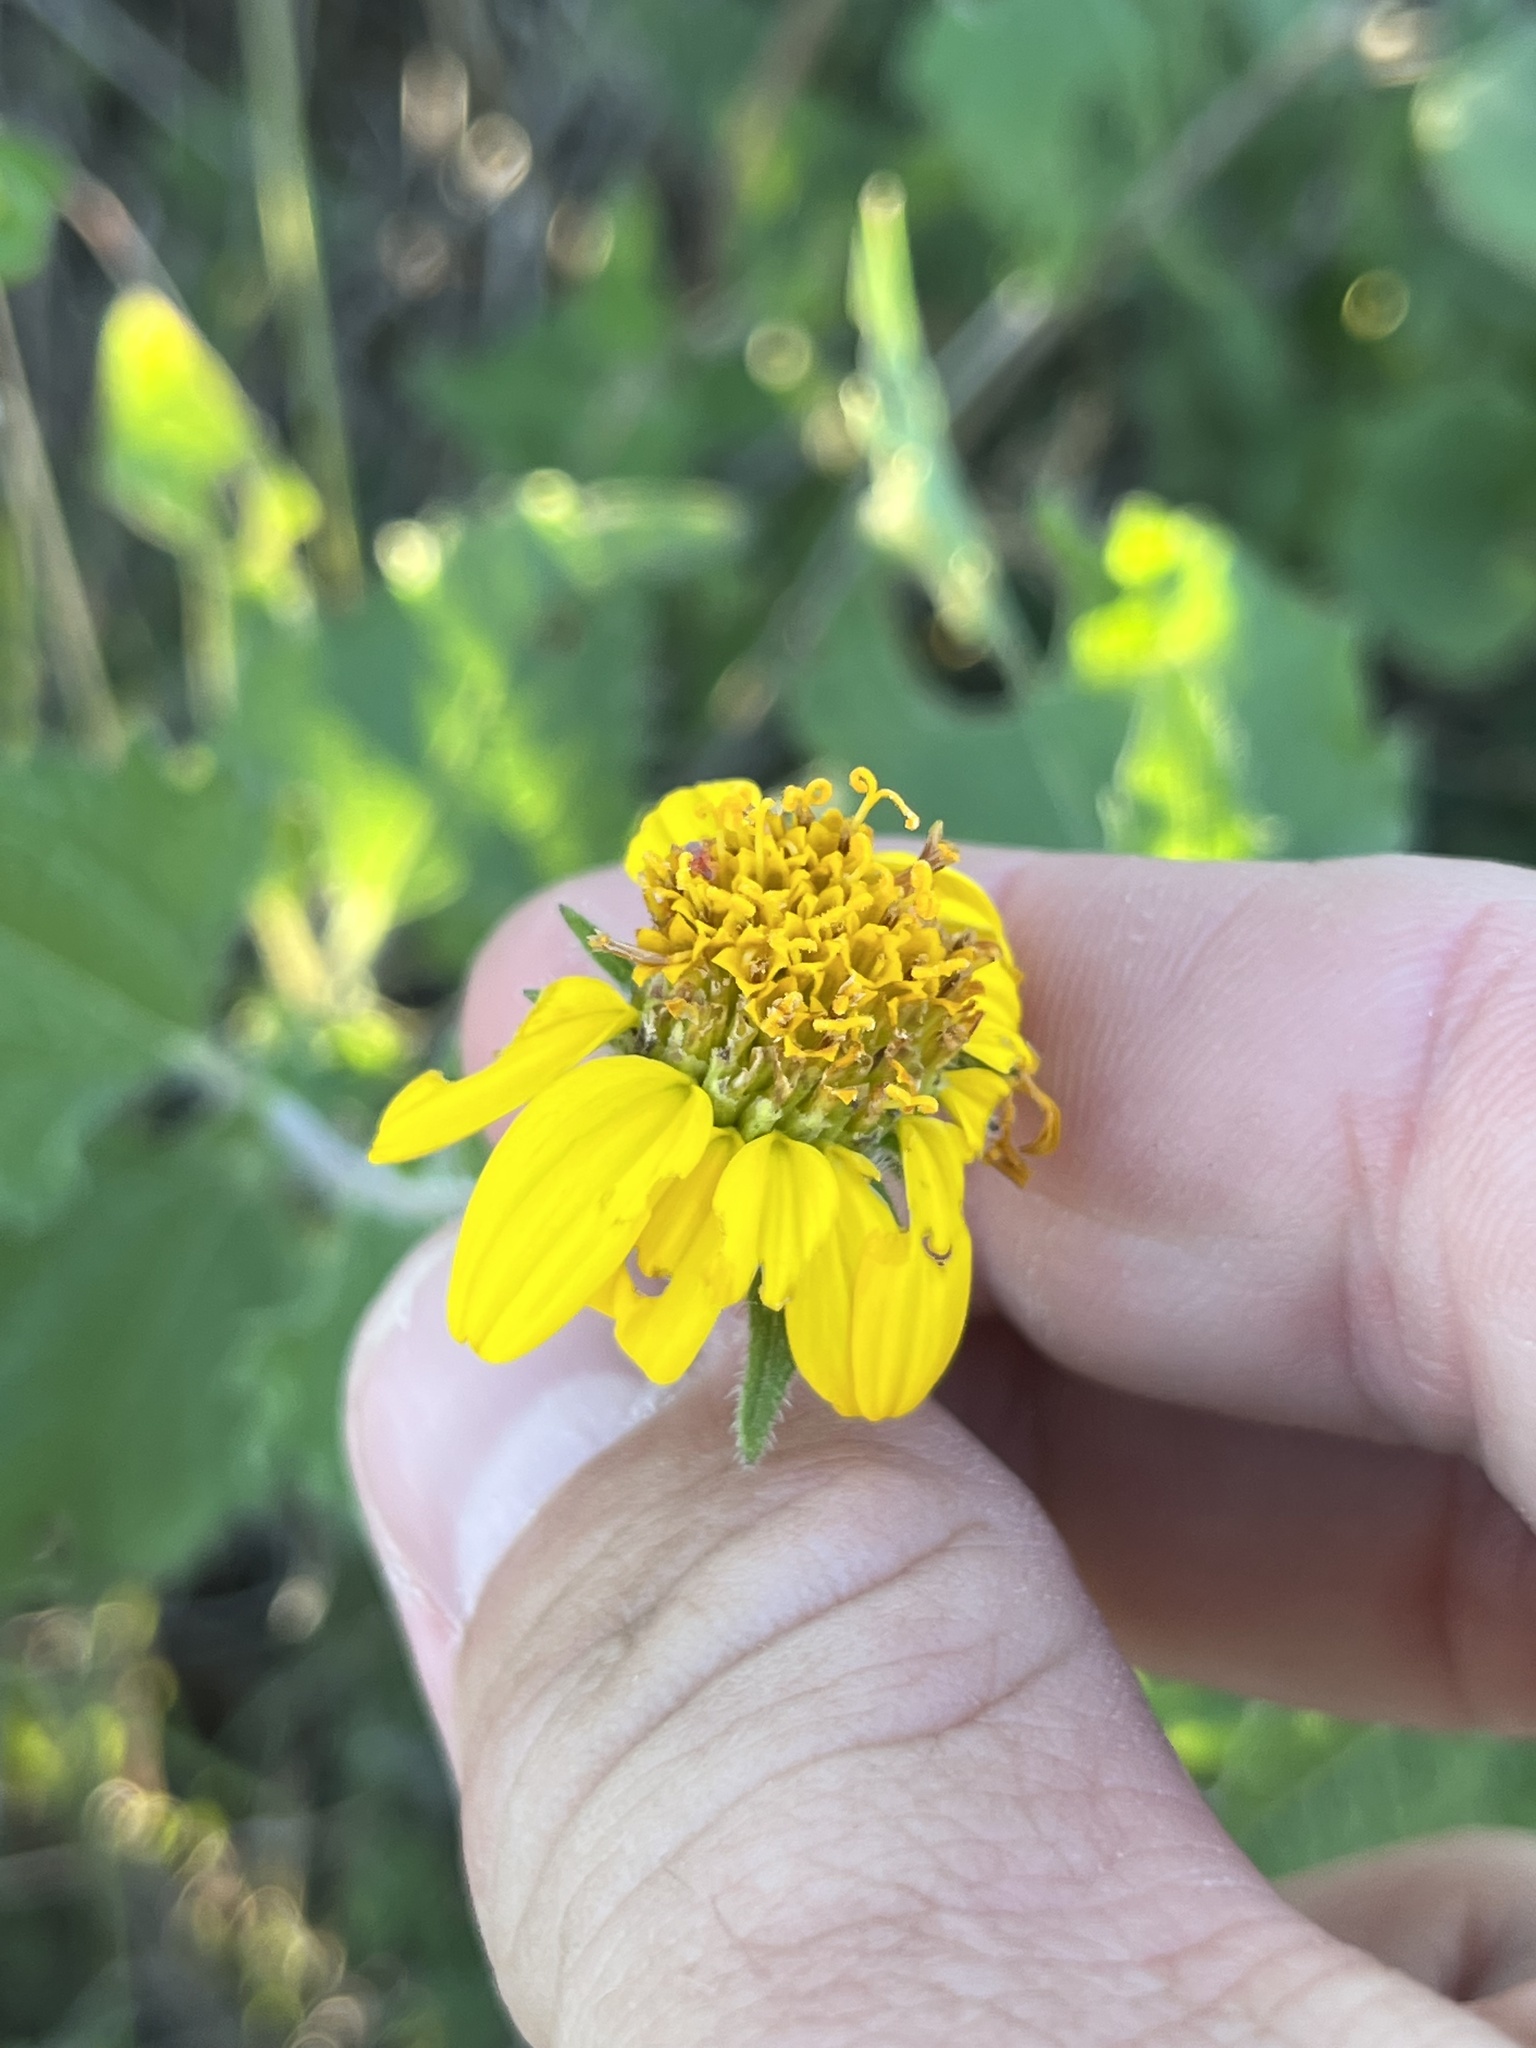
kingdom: Plantae
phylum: Tracheophyta
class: Magnoliopsida
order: Asterales
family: Asteraceae
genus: Simsia
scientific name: Simsia calva
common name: Awnless bush-sunflower
